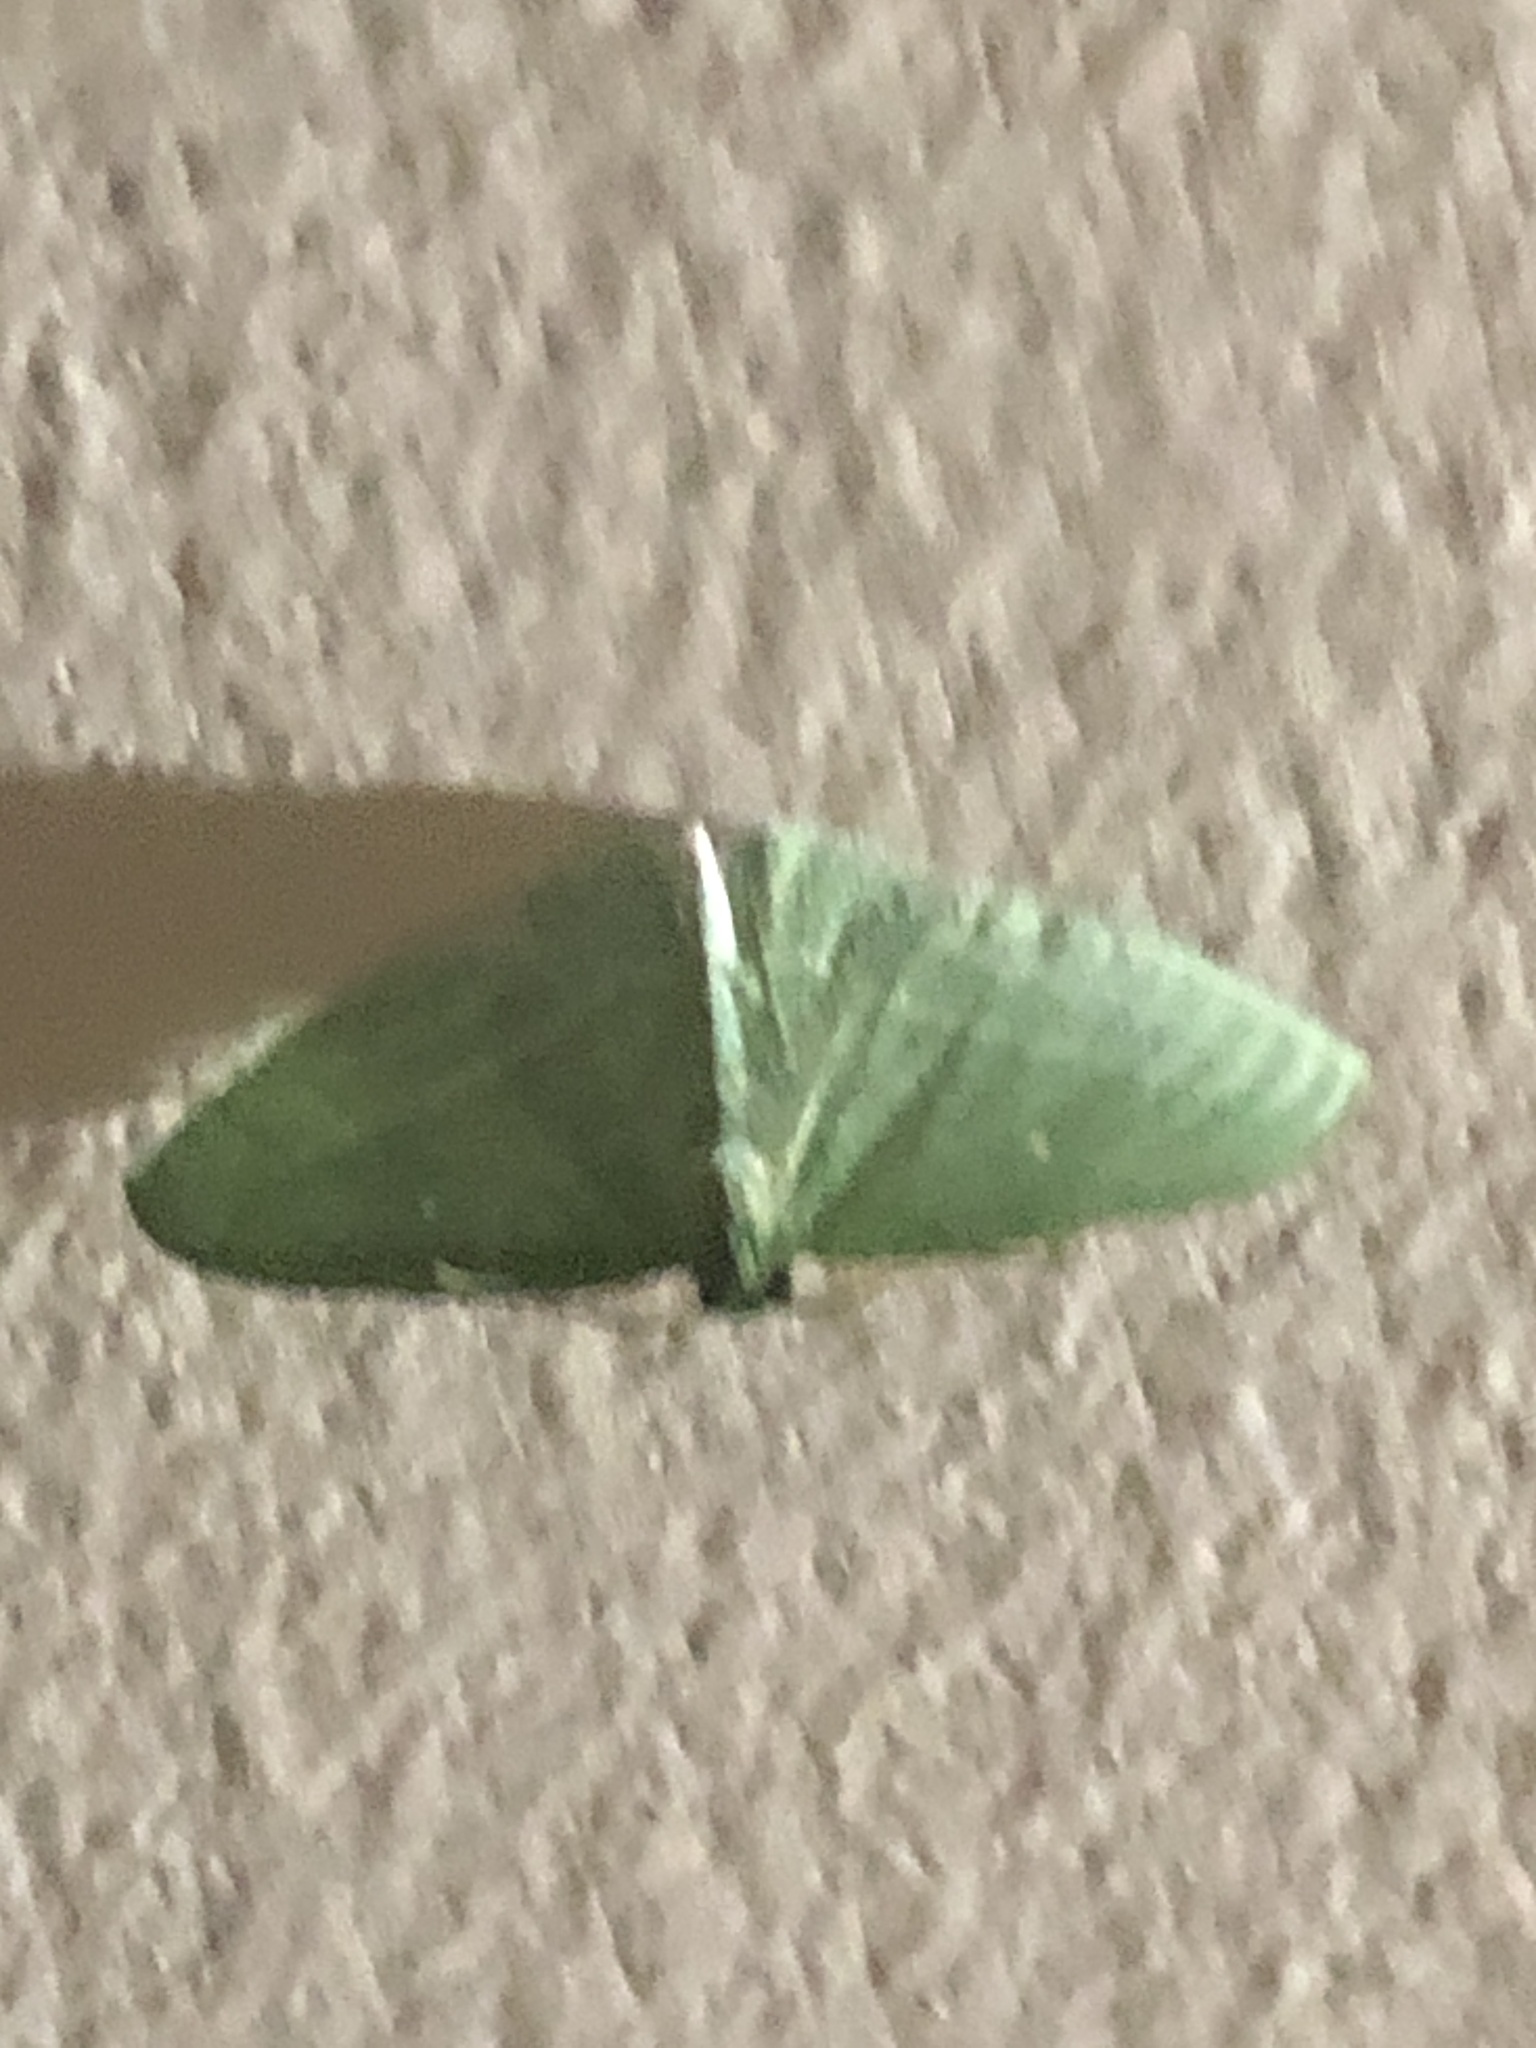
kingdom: Animalia
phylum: Arthropoda
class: Insecta
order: Lepidoptera
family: Geometridae
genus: Dyspteris
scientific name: Dyspteris abortivaria
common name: Bad-wing
